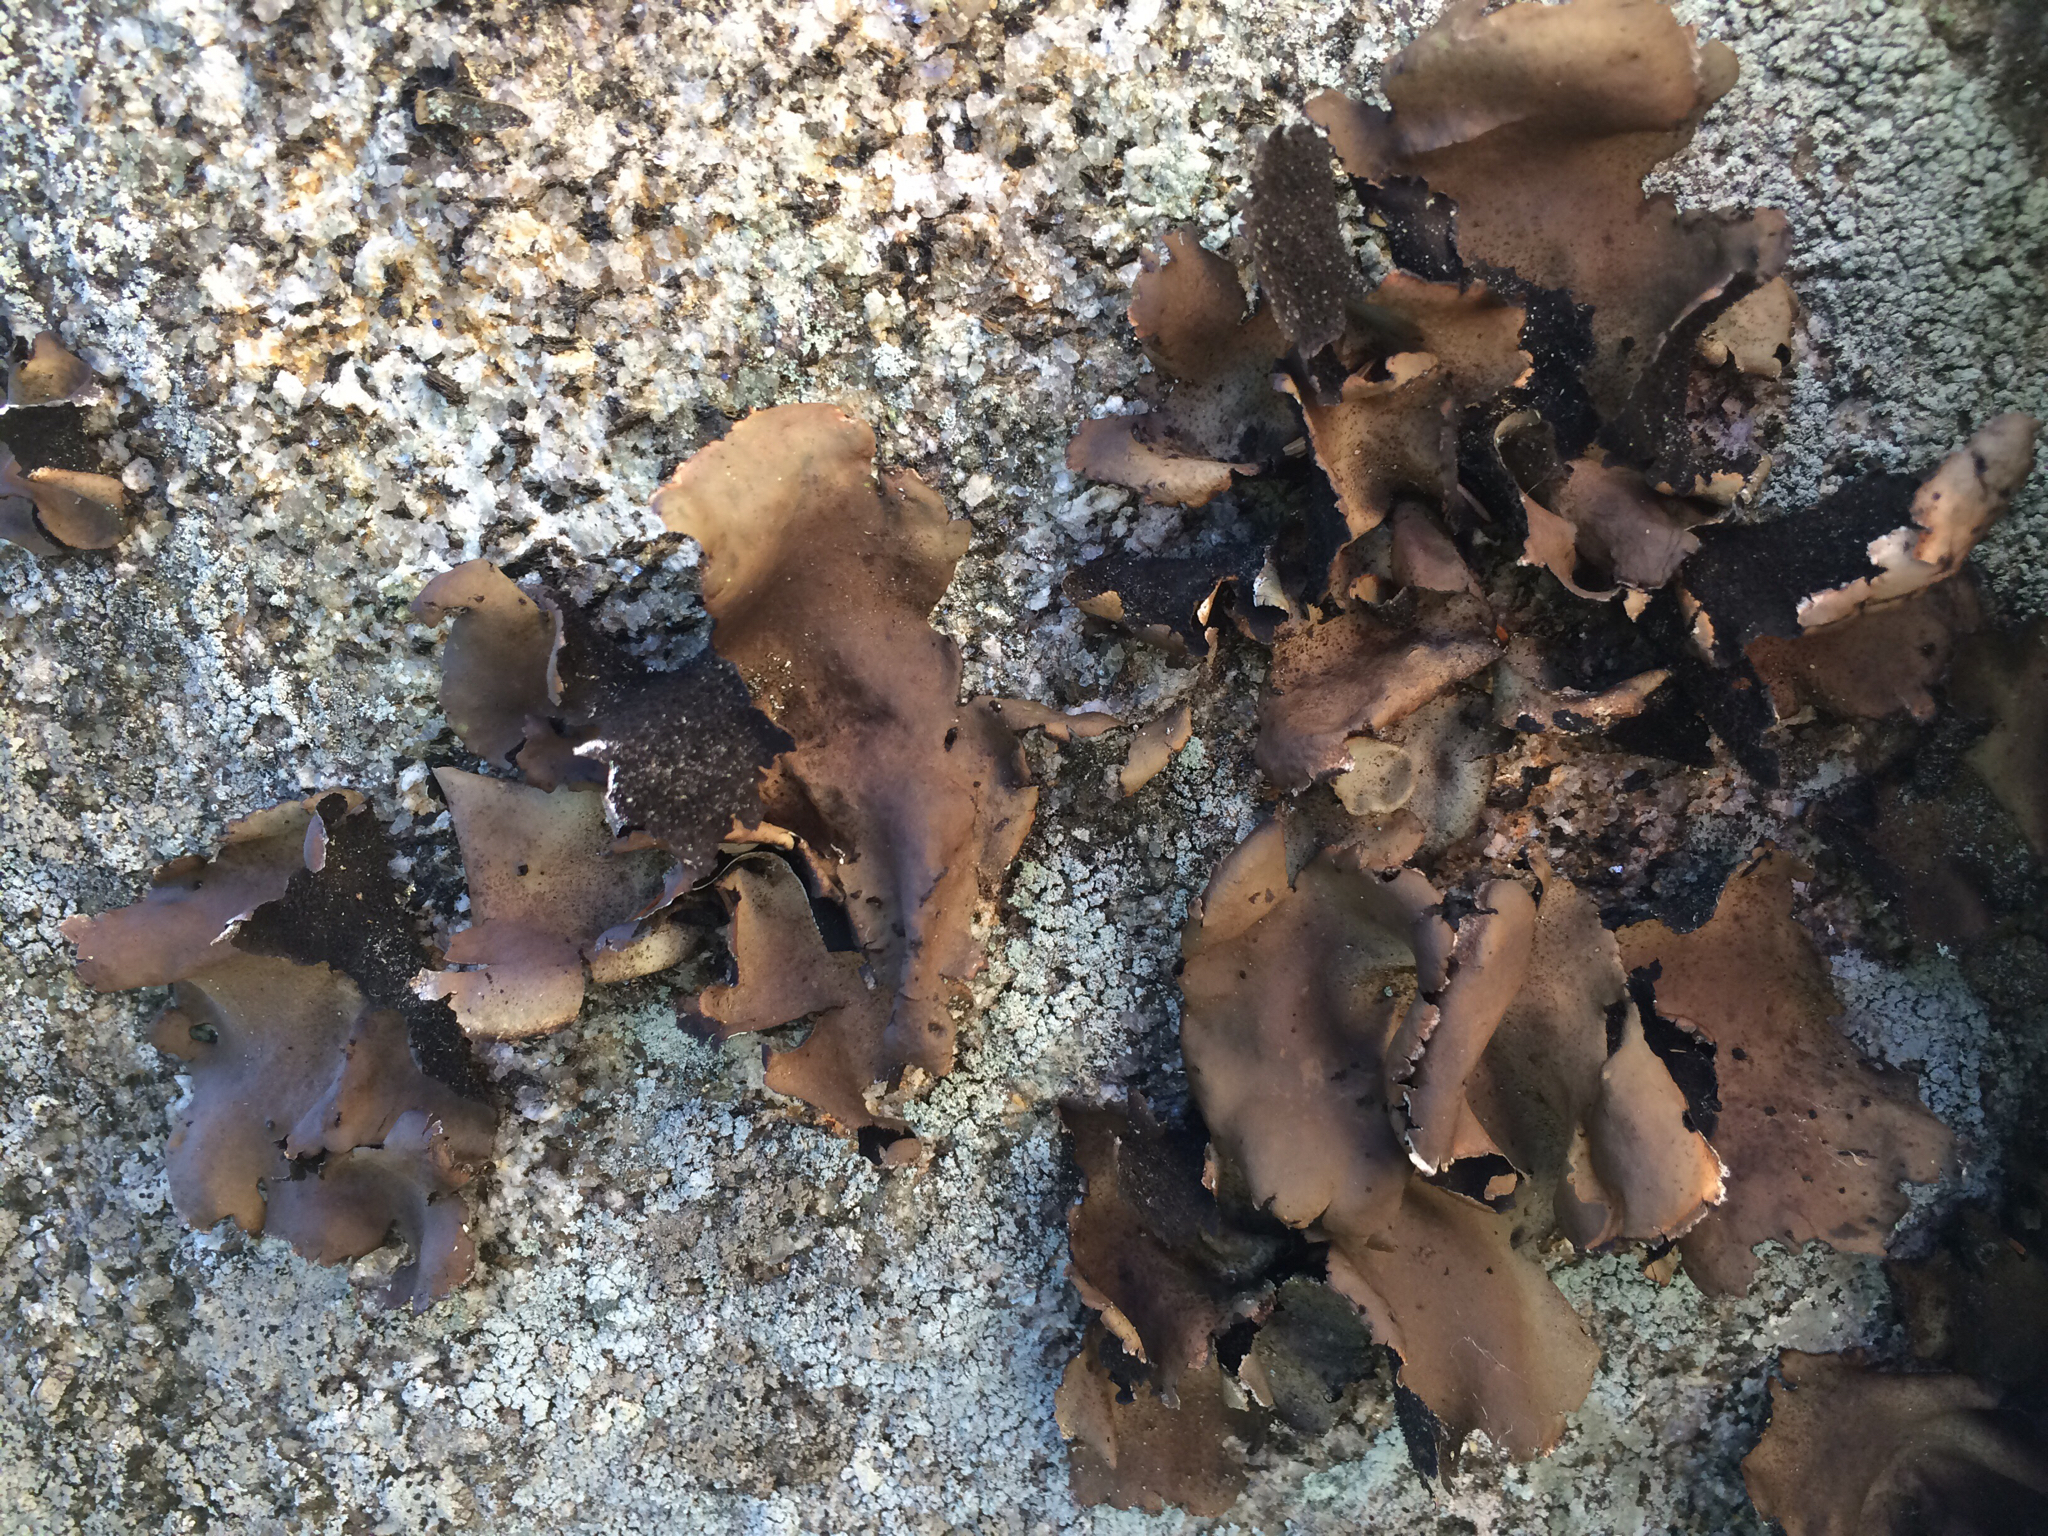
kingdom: Fungi
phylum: Ascomycota
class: Lecanoromycetes
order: Umbilicariales
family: Umbilicariaceae
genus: Umbilicaria
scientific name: Umbilicaria mammulata
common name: Smooth rock tripe
